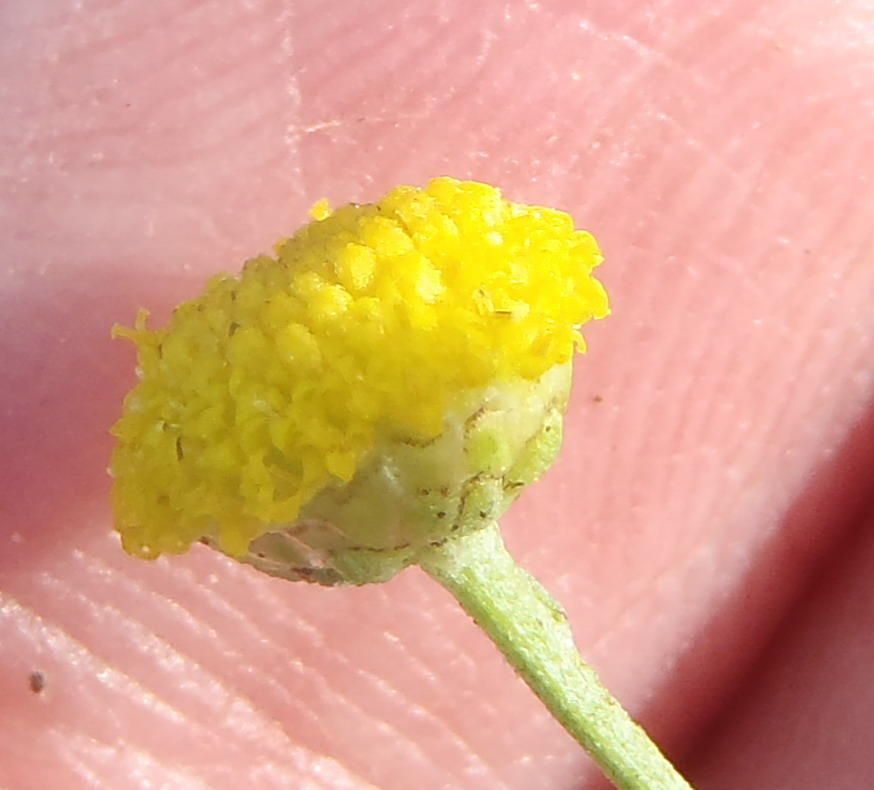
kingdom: Plantae
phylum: Tracheophyta
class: Magnoliopsida
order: Asterales
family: Asteraceae
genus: Pentzia
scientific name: Pentzia incana
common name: African sheepbush
